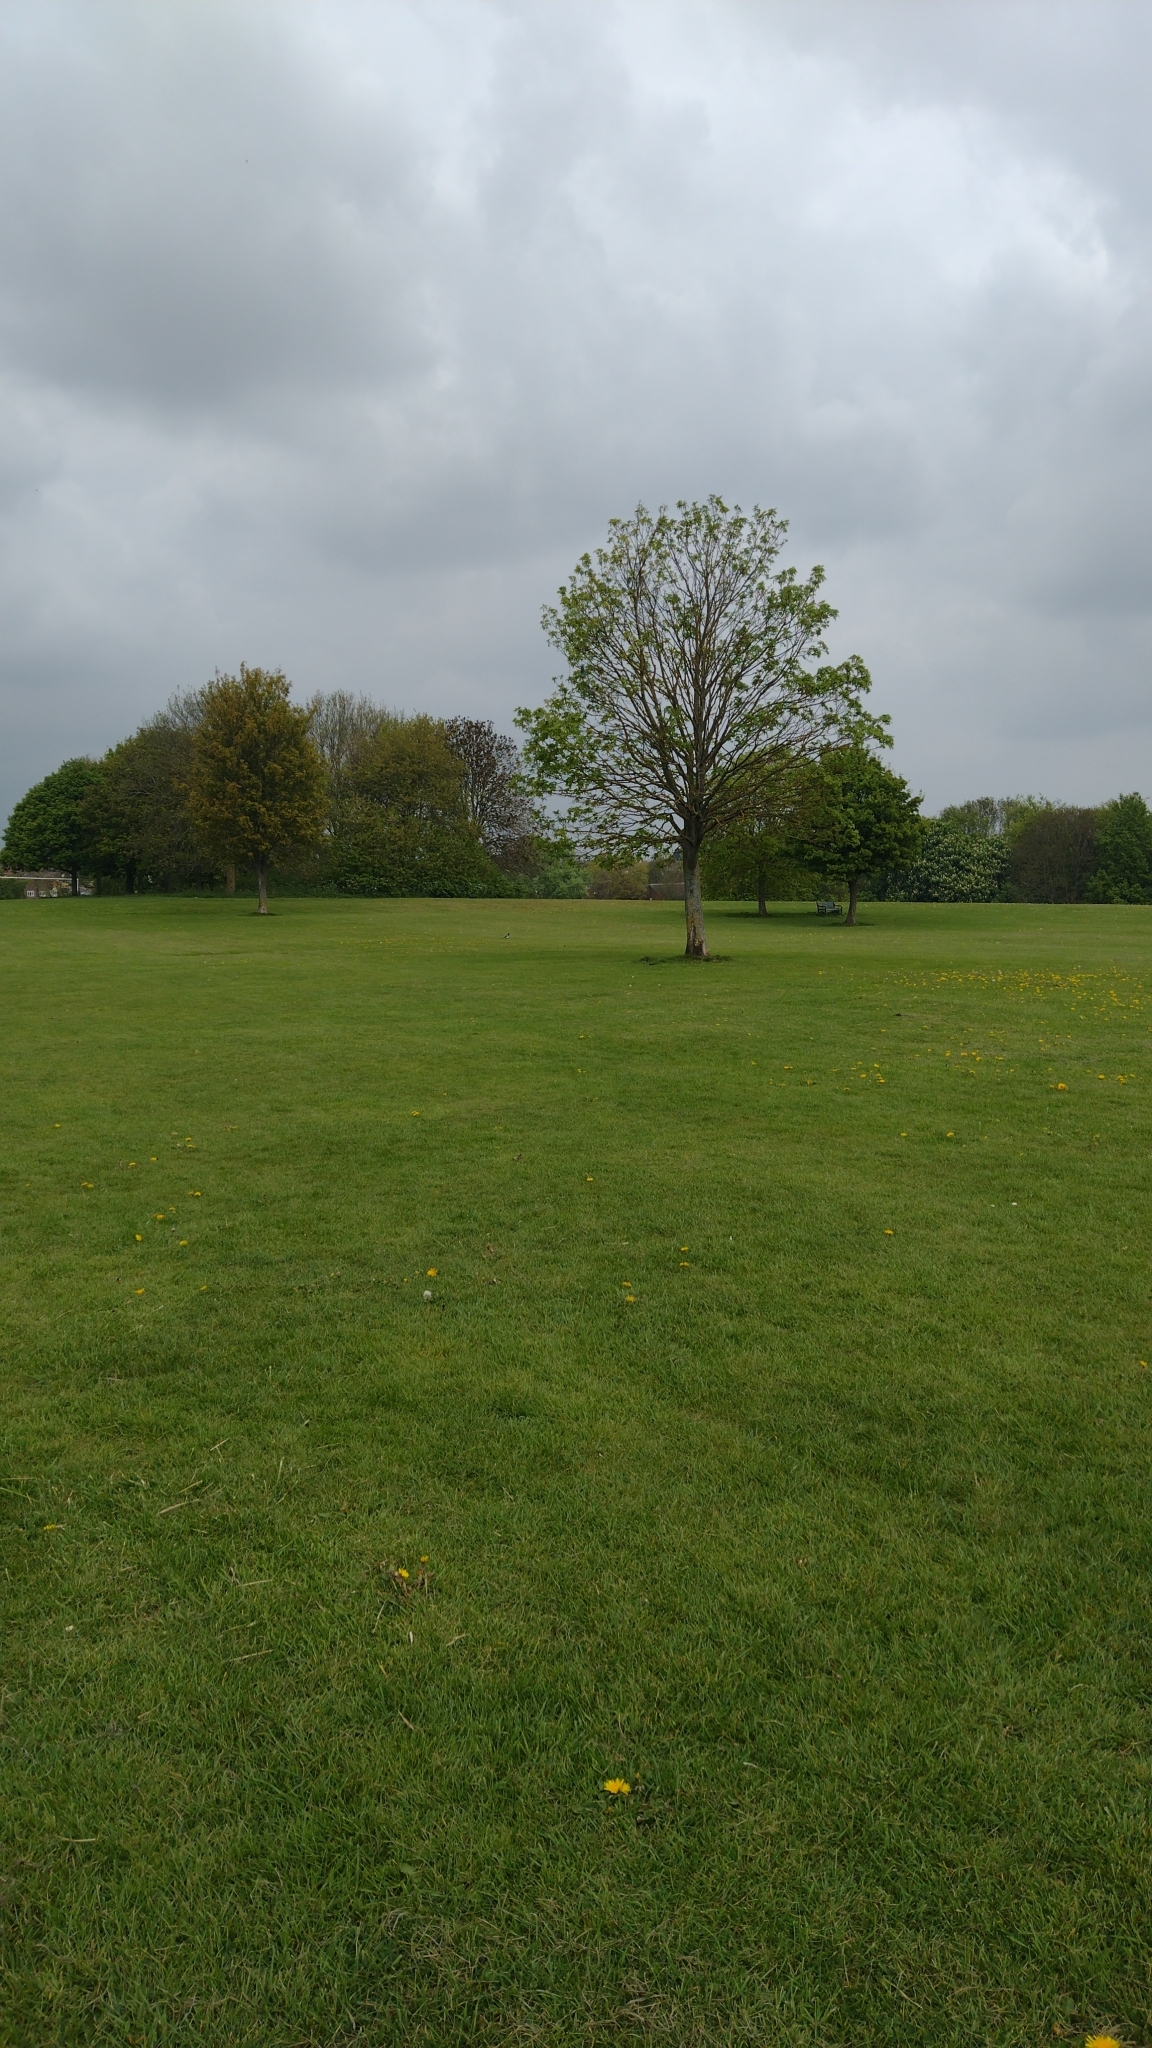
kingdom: Animalia
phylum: Chordata
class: Aves
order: Passeriformes
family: Corvidae
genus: Pica
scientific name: Pica pica
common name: Eurasian magpie
